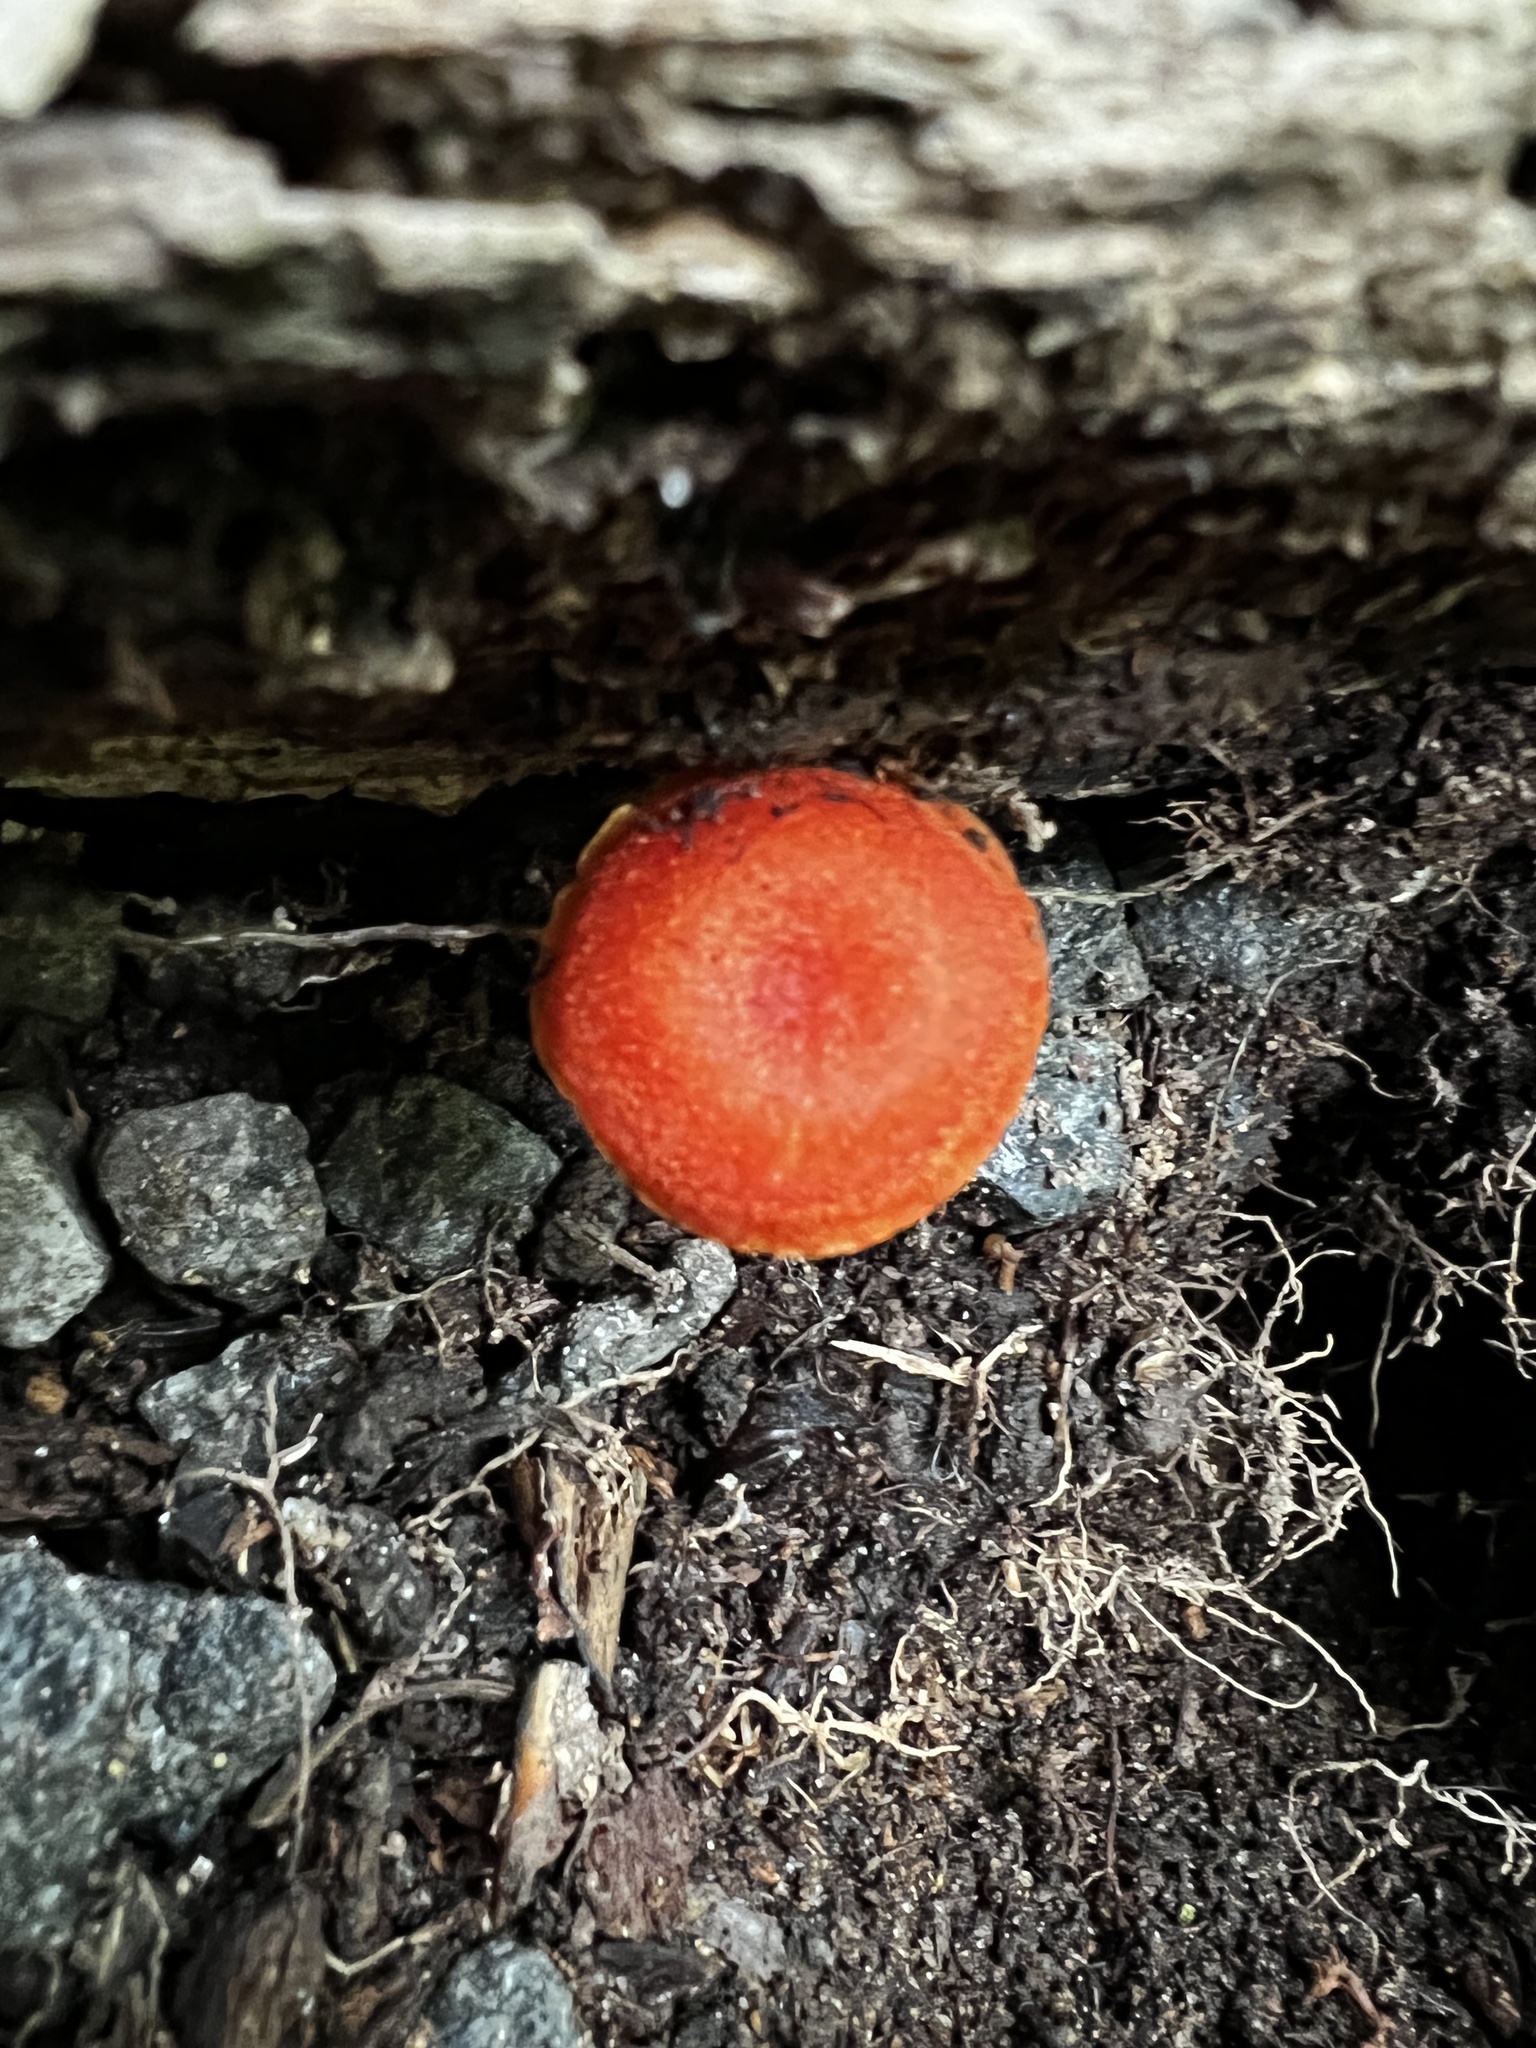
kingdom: Fungi
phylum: Basidiomycota
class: Agaricomycetes
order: Agaricales
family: Hygrophoraceae
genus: Hygrocybe
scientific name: Hygrocybe cantharellus
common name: Goblet waxcap
